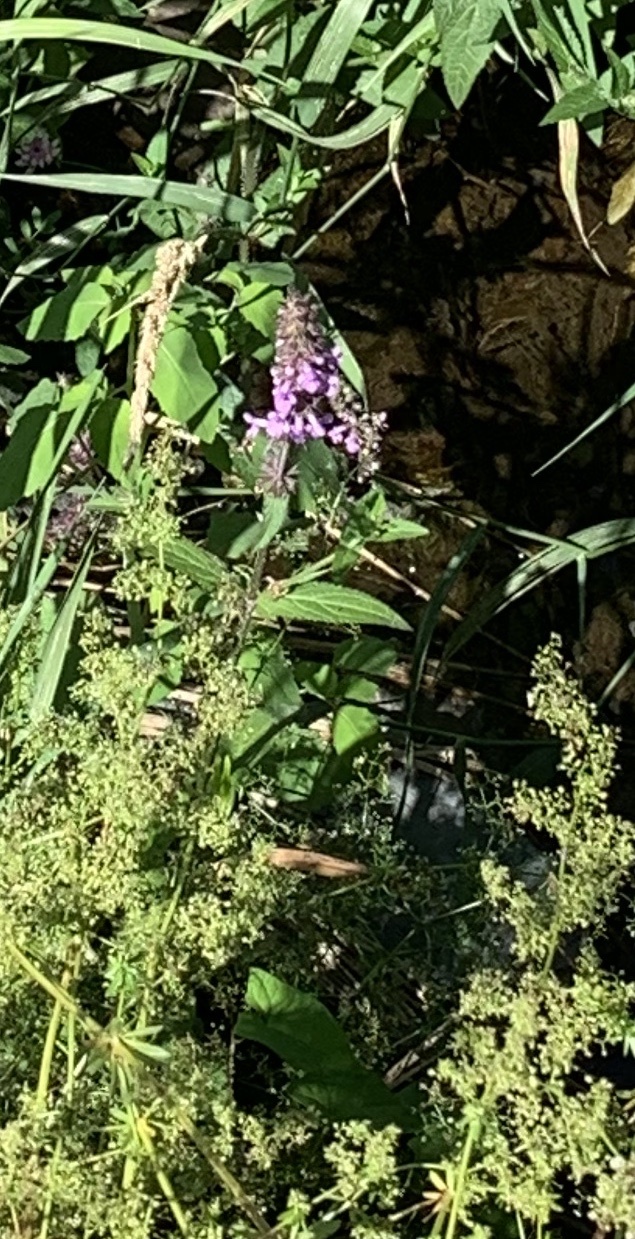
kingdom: Plantae
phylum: Tracheophyta
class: Magnoliopsida
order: Lamiales
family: Lamiaceae
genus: Stachys
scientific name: Stachys palustris
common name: Marsh woundwort
